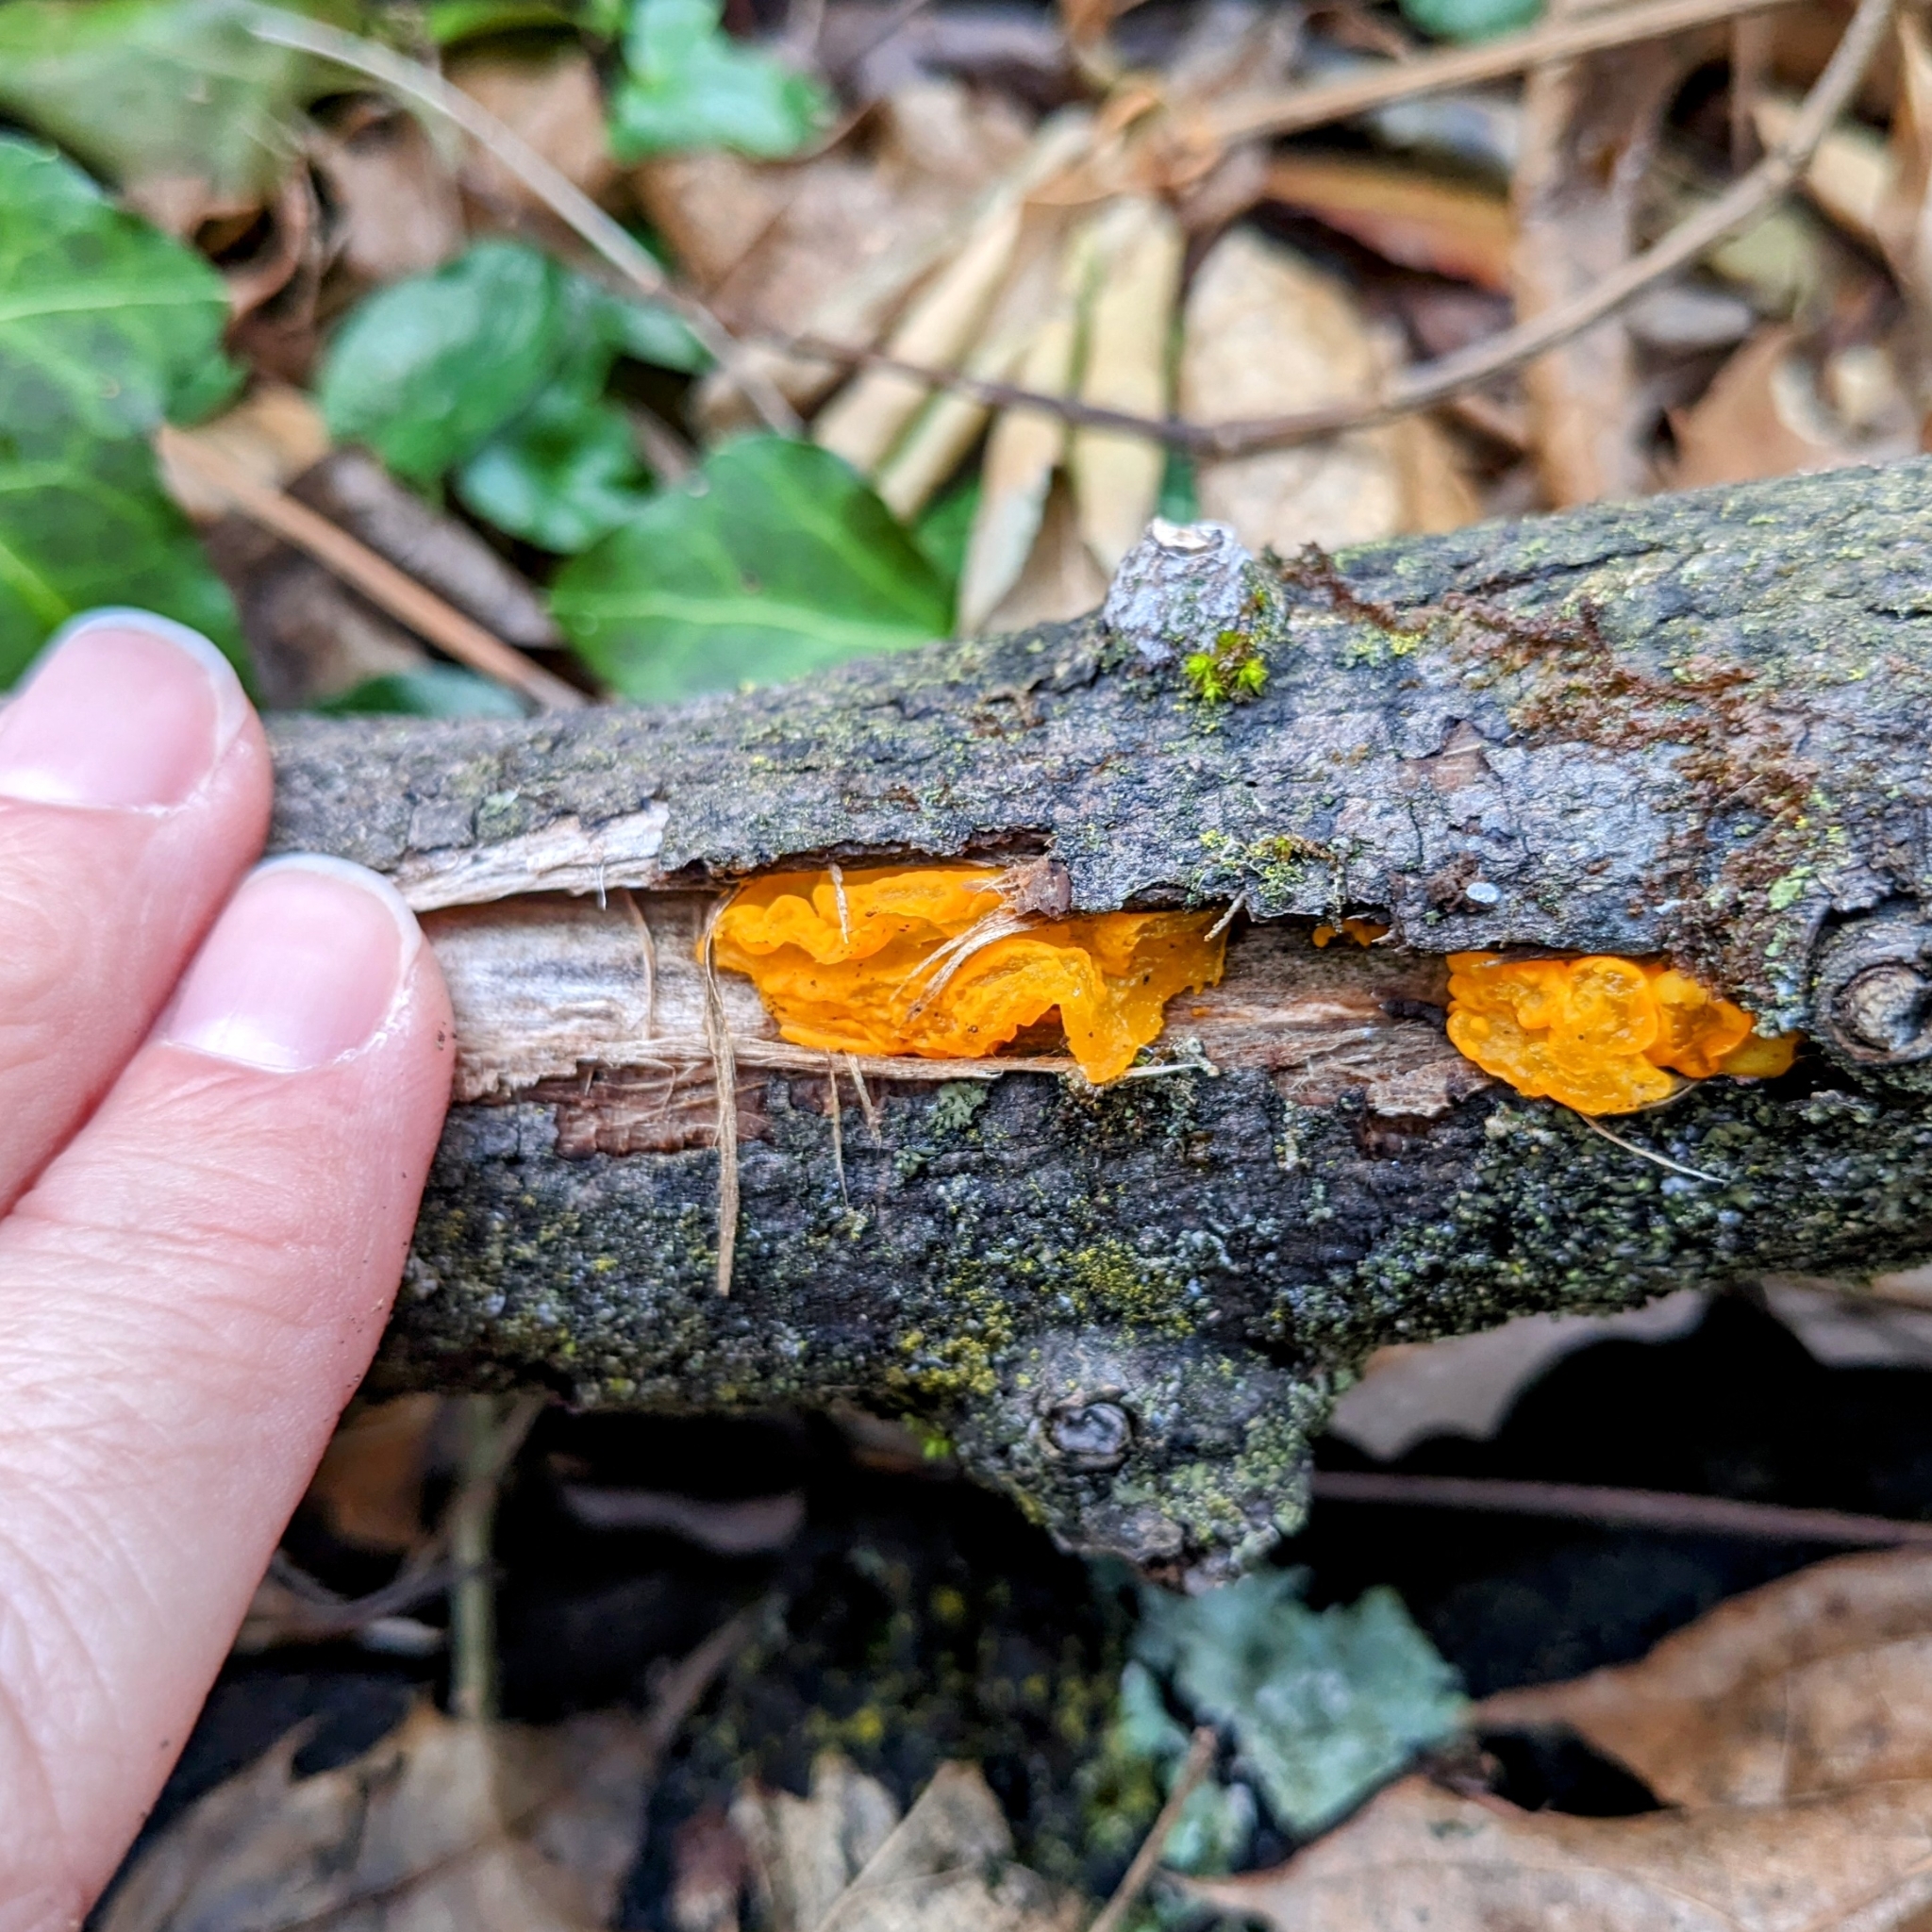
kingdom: Fungi
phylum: Basidiomycota
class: Tremellomycetes
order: Tremellales
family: Tremellaceae
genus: Tremella
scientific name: Tremella mesenterica
